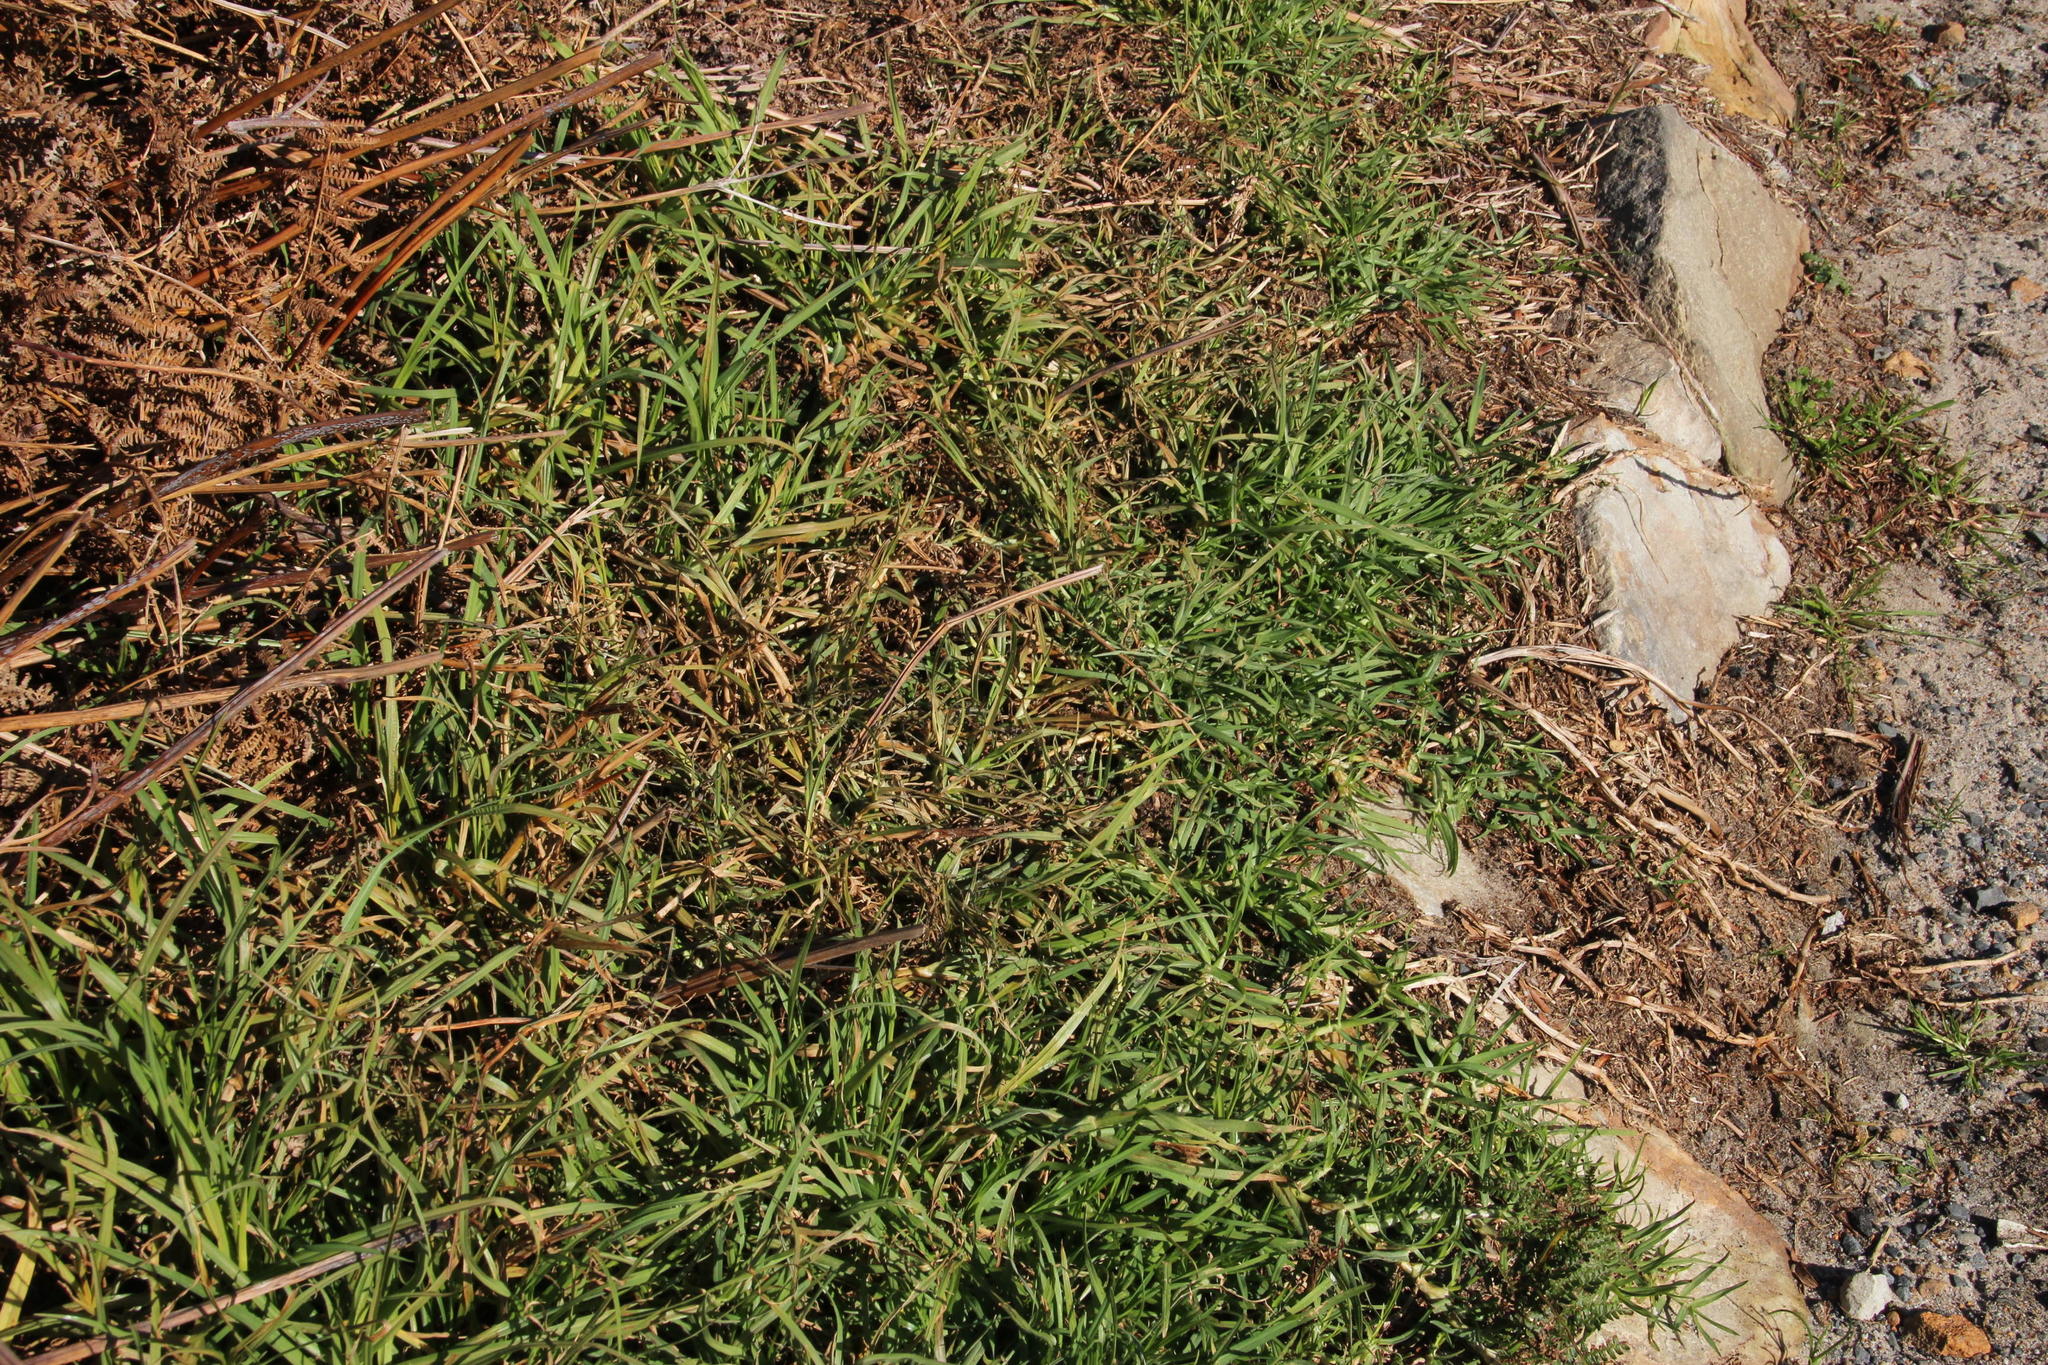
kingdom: Plantae
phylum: Tracheophyta
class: Liliopsida
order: Poales
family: Poaceae
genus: Cenchrus
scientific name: Cenchrus clandestinus
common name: Kikuyugrass
